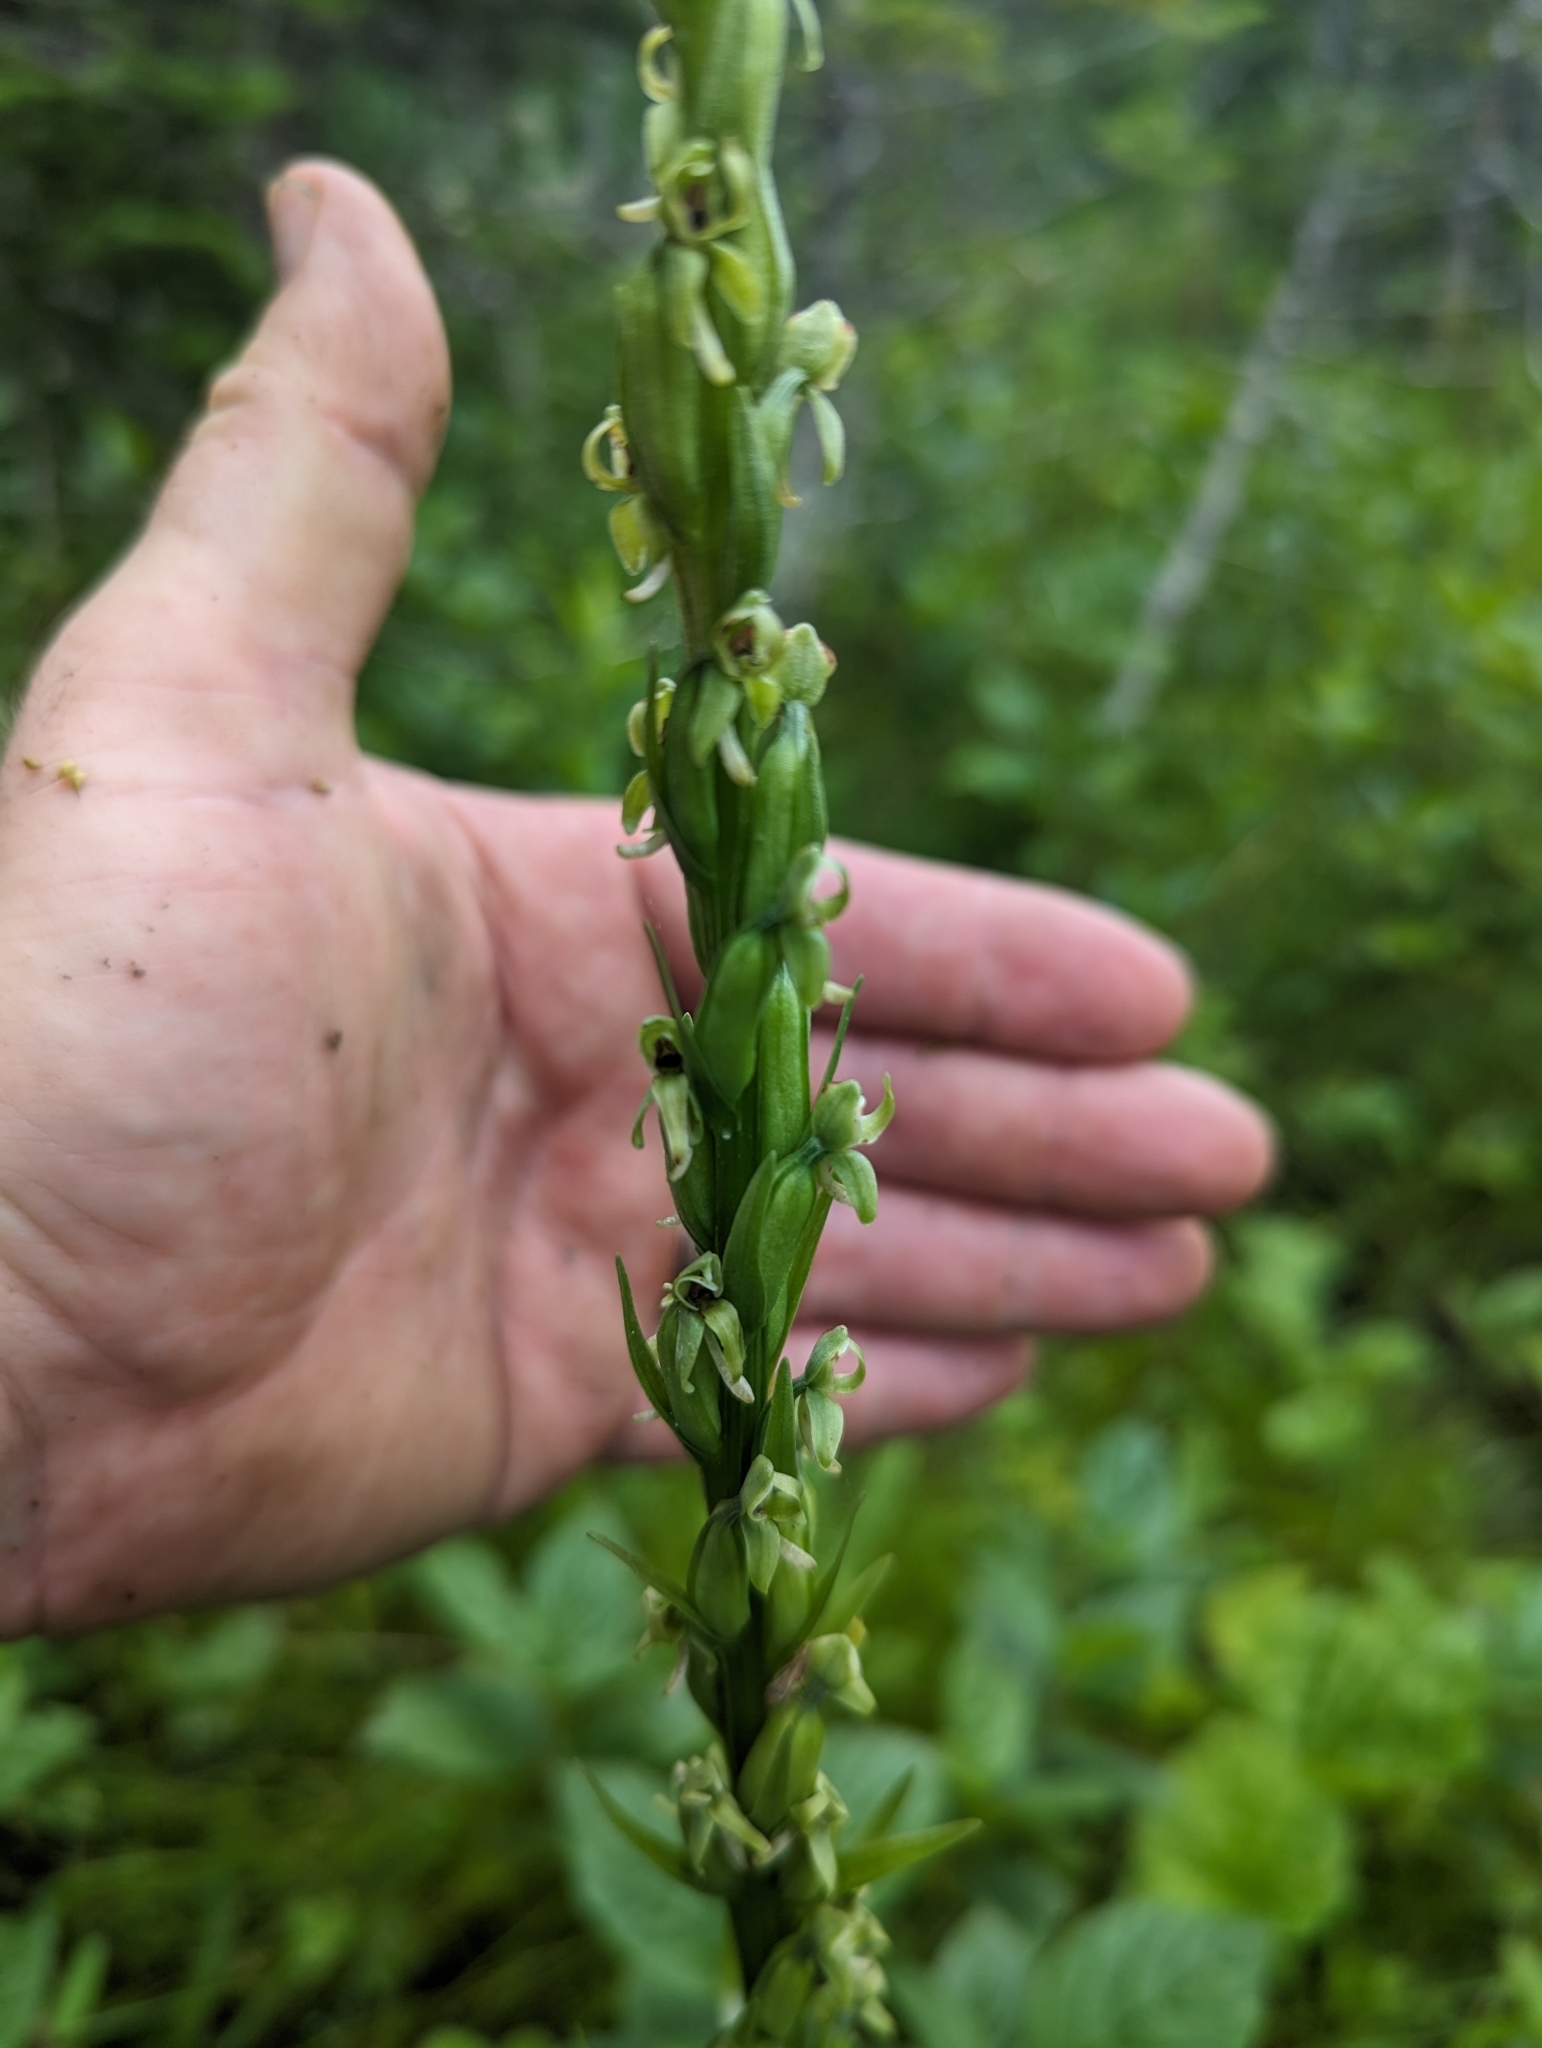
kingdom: Plantae
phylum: Tracheophyta
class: Liliopsida
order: Asparagales
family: Orchidaceae
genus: Platanthera
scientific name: Platanthera huronensis
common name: Fragrant green orchid
